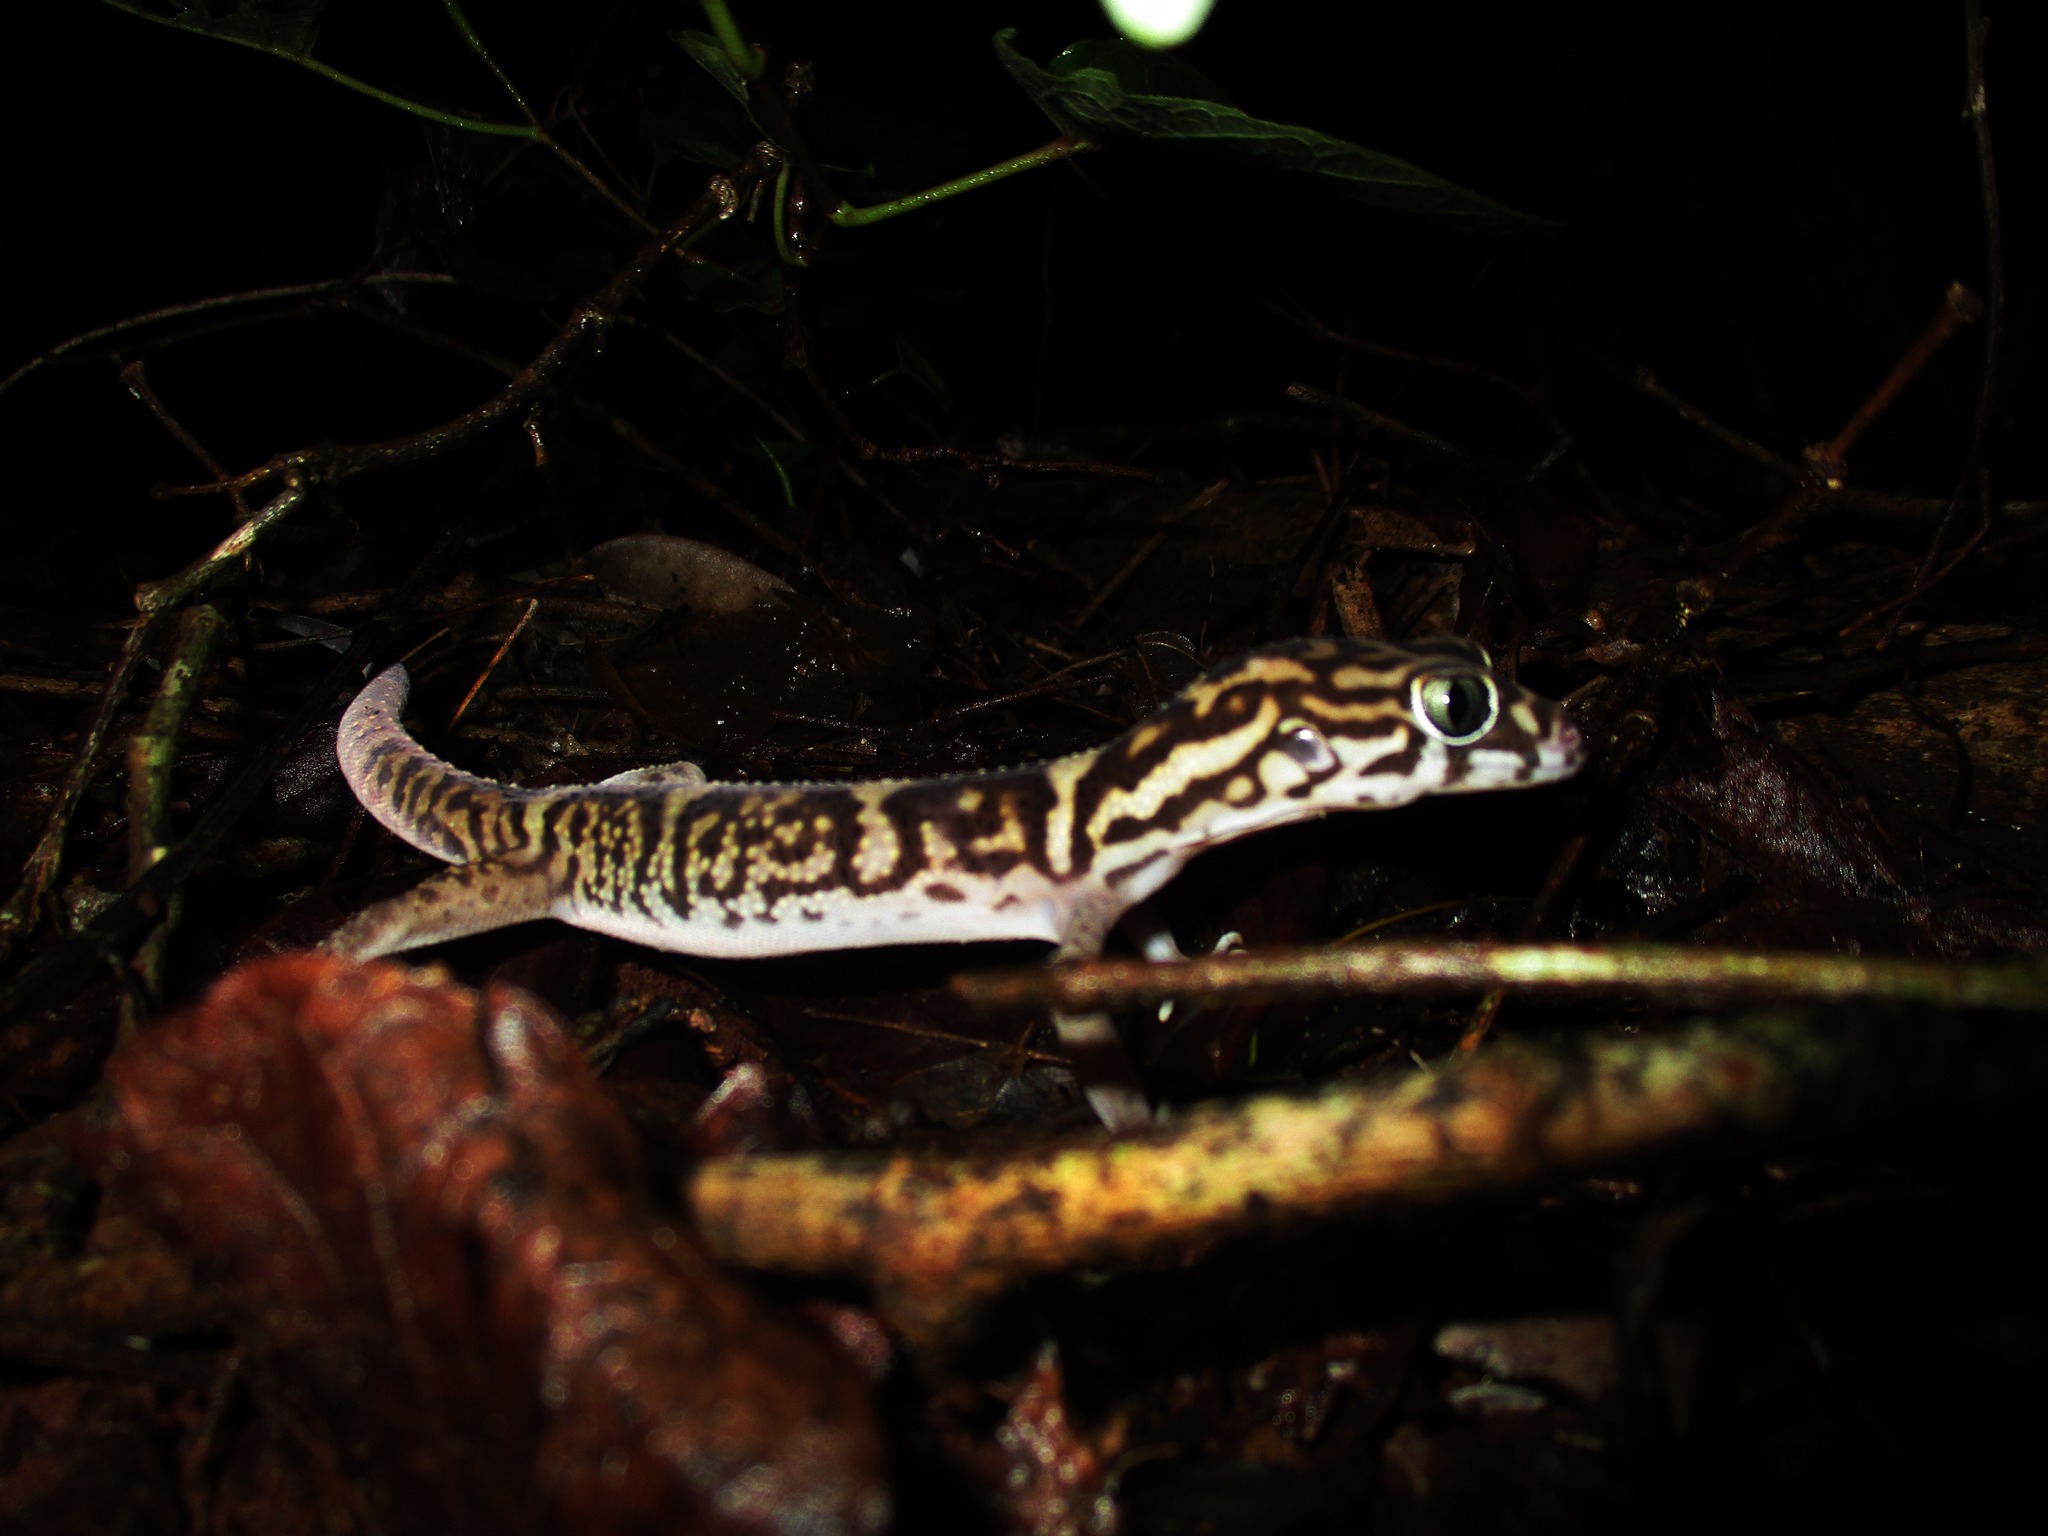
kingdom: Animalia
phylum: Chordata
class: Squamata
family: Eublepharidae
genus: Coleonyx
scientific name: Coleonyx elegans
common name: Yucatan banded gecko
